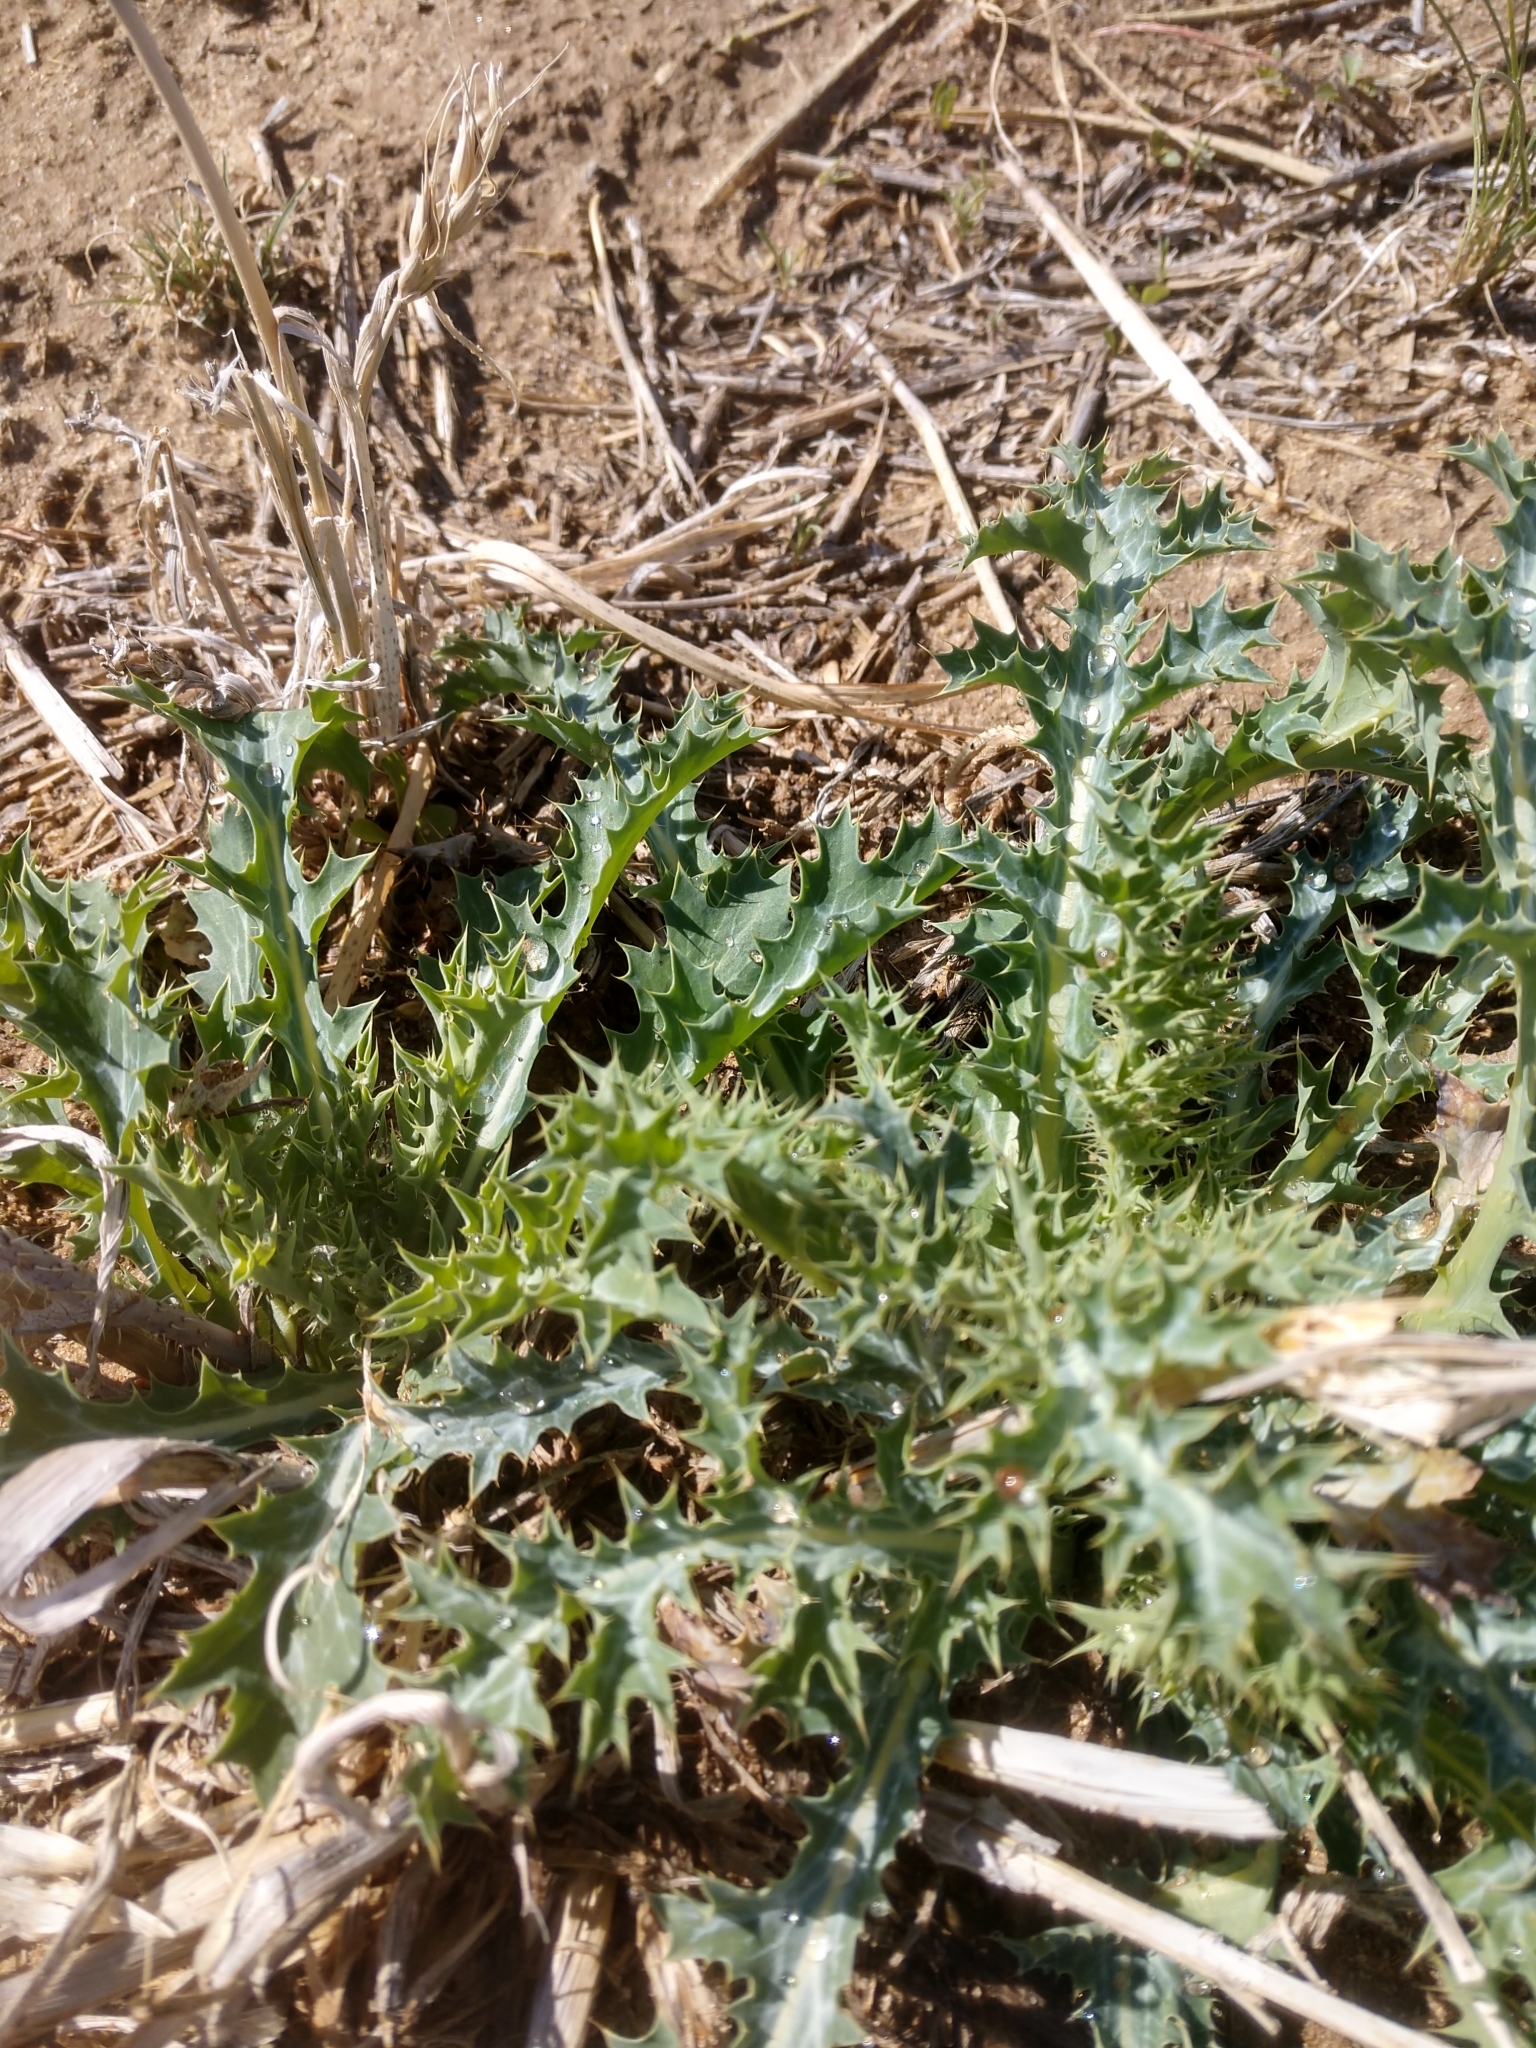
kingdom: Plantae
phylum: Tracheophyta
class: Magnoliopsida
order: Ranunculales
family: Papaveraceae
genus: Argemone
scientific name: Argemone polyanthemos
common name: Plains prickly-poppy
